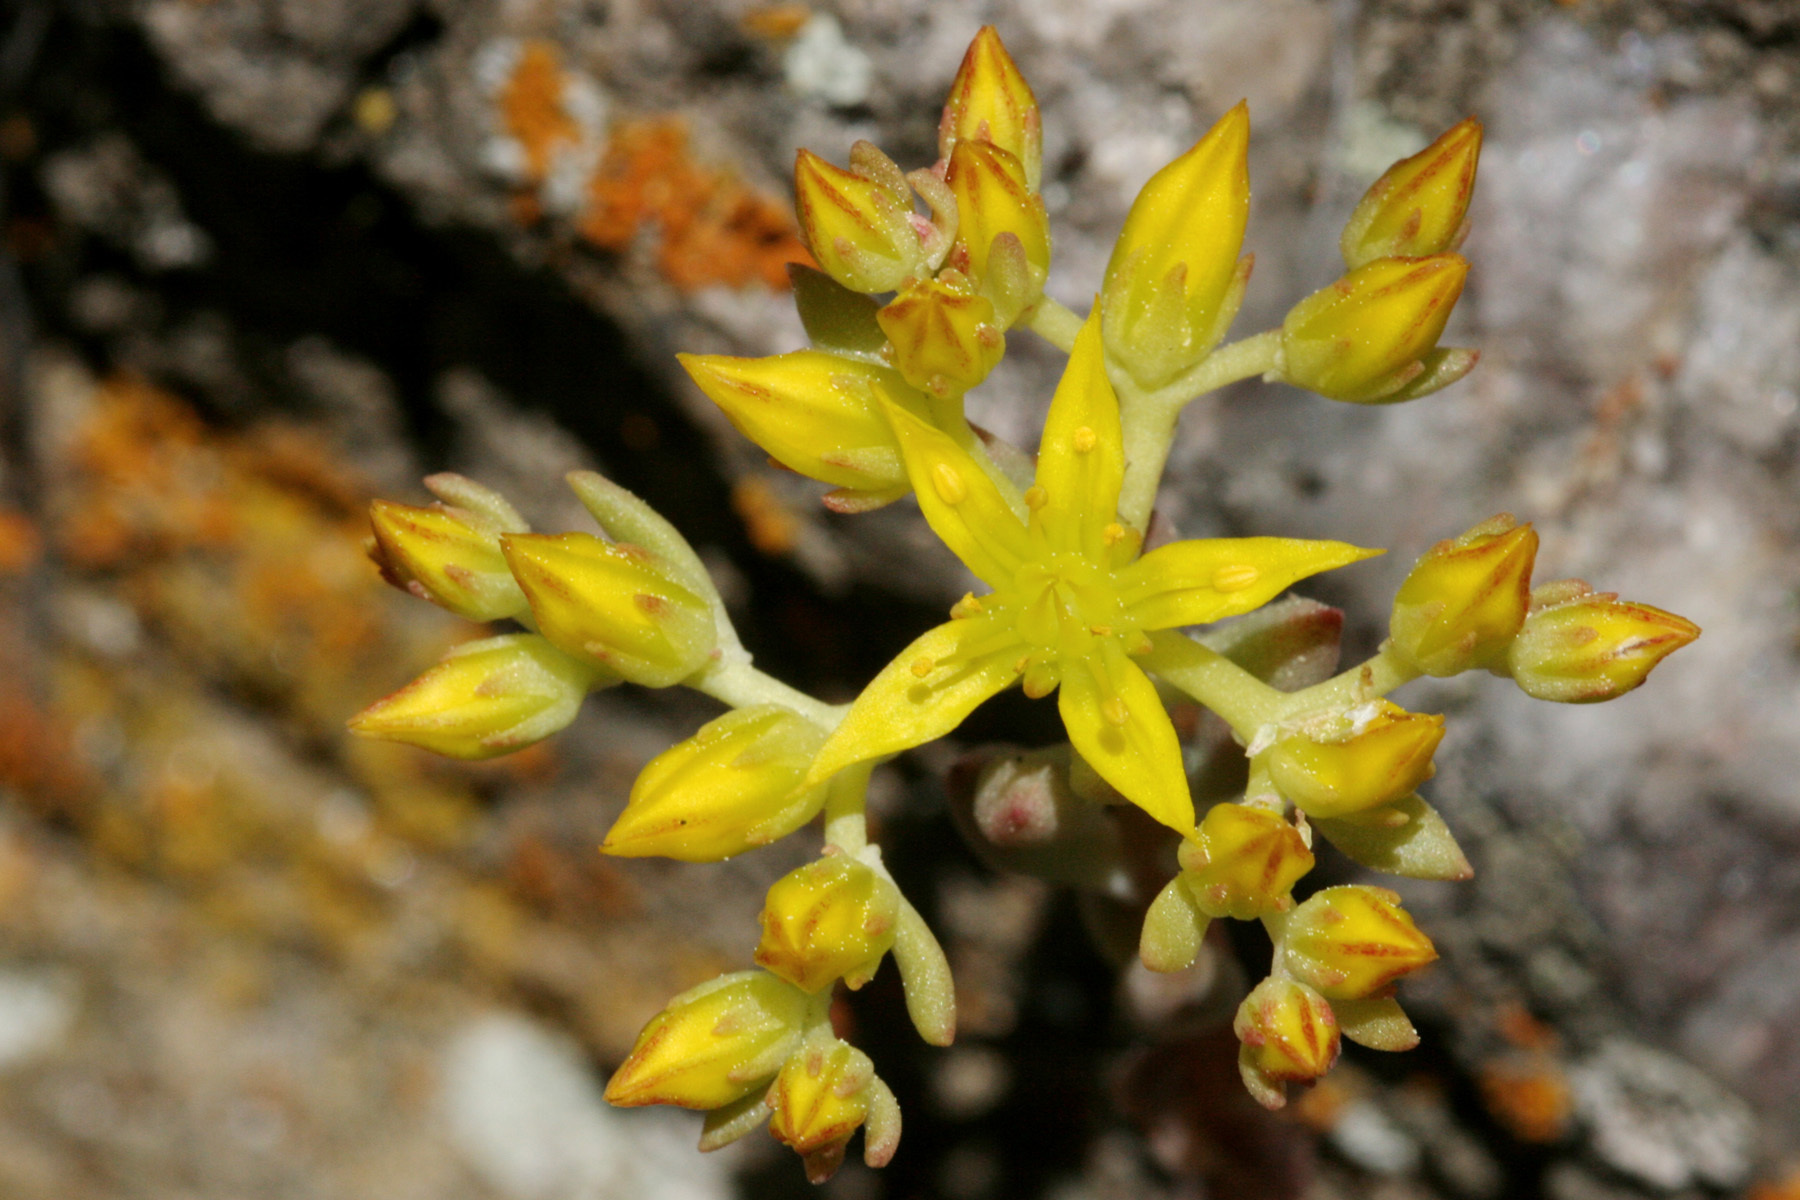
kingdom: Plantae
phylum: Tracheophyta
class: Magnoliopsida
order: Saxifragales
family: Crassulaceae
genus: Sedum
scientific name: Sedum lanceolatum
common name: Common stonecrop
